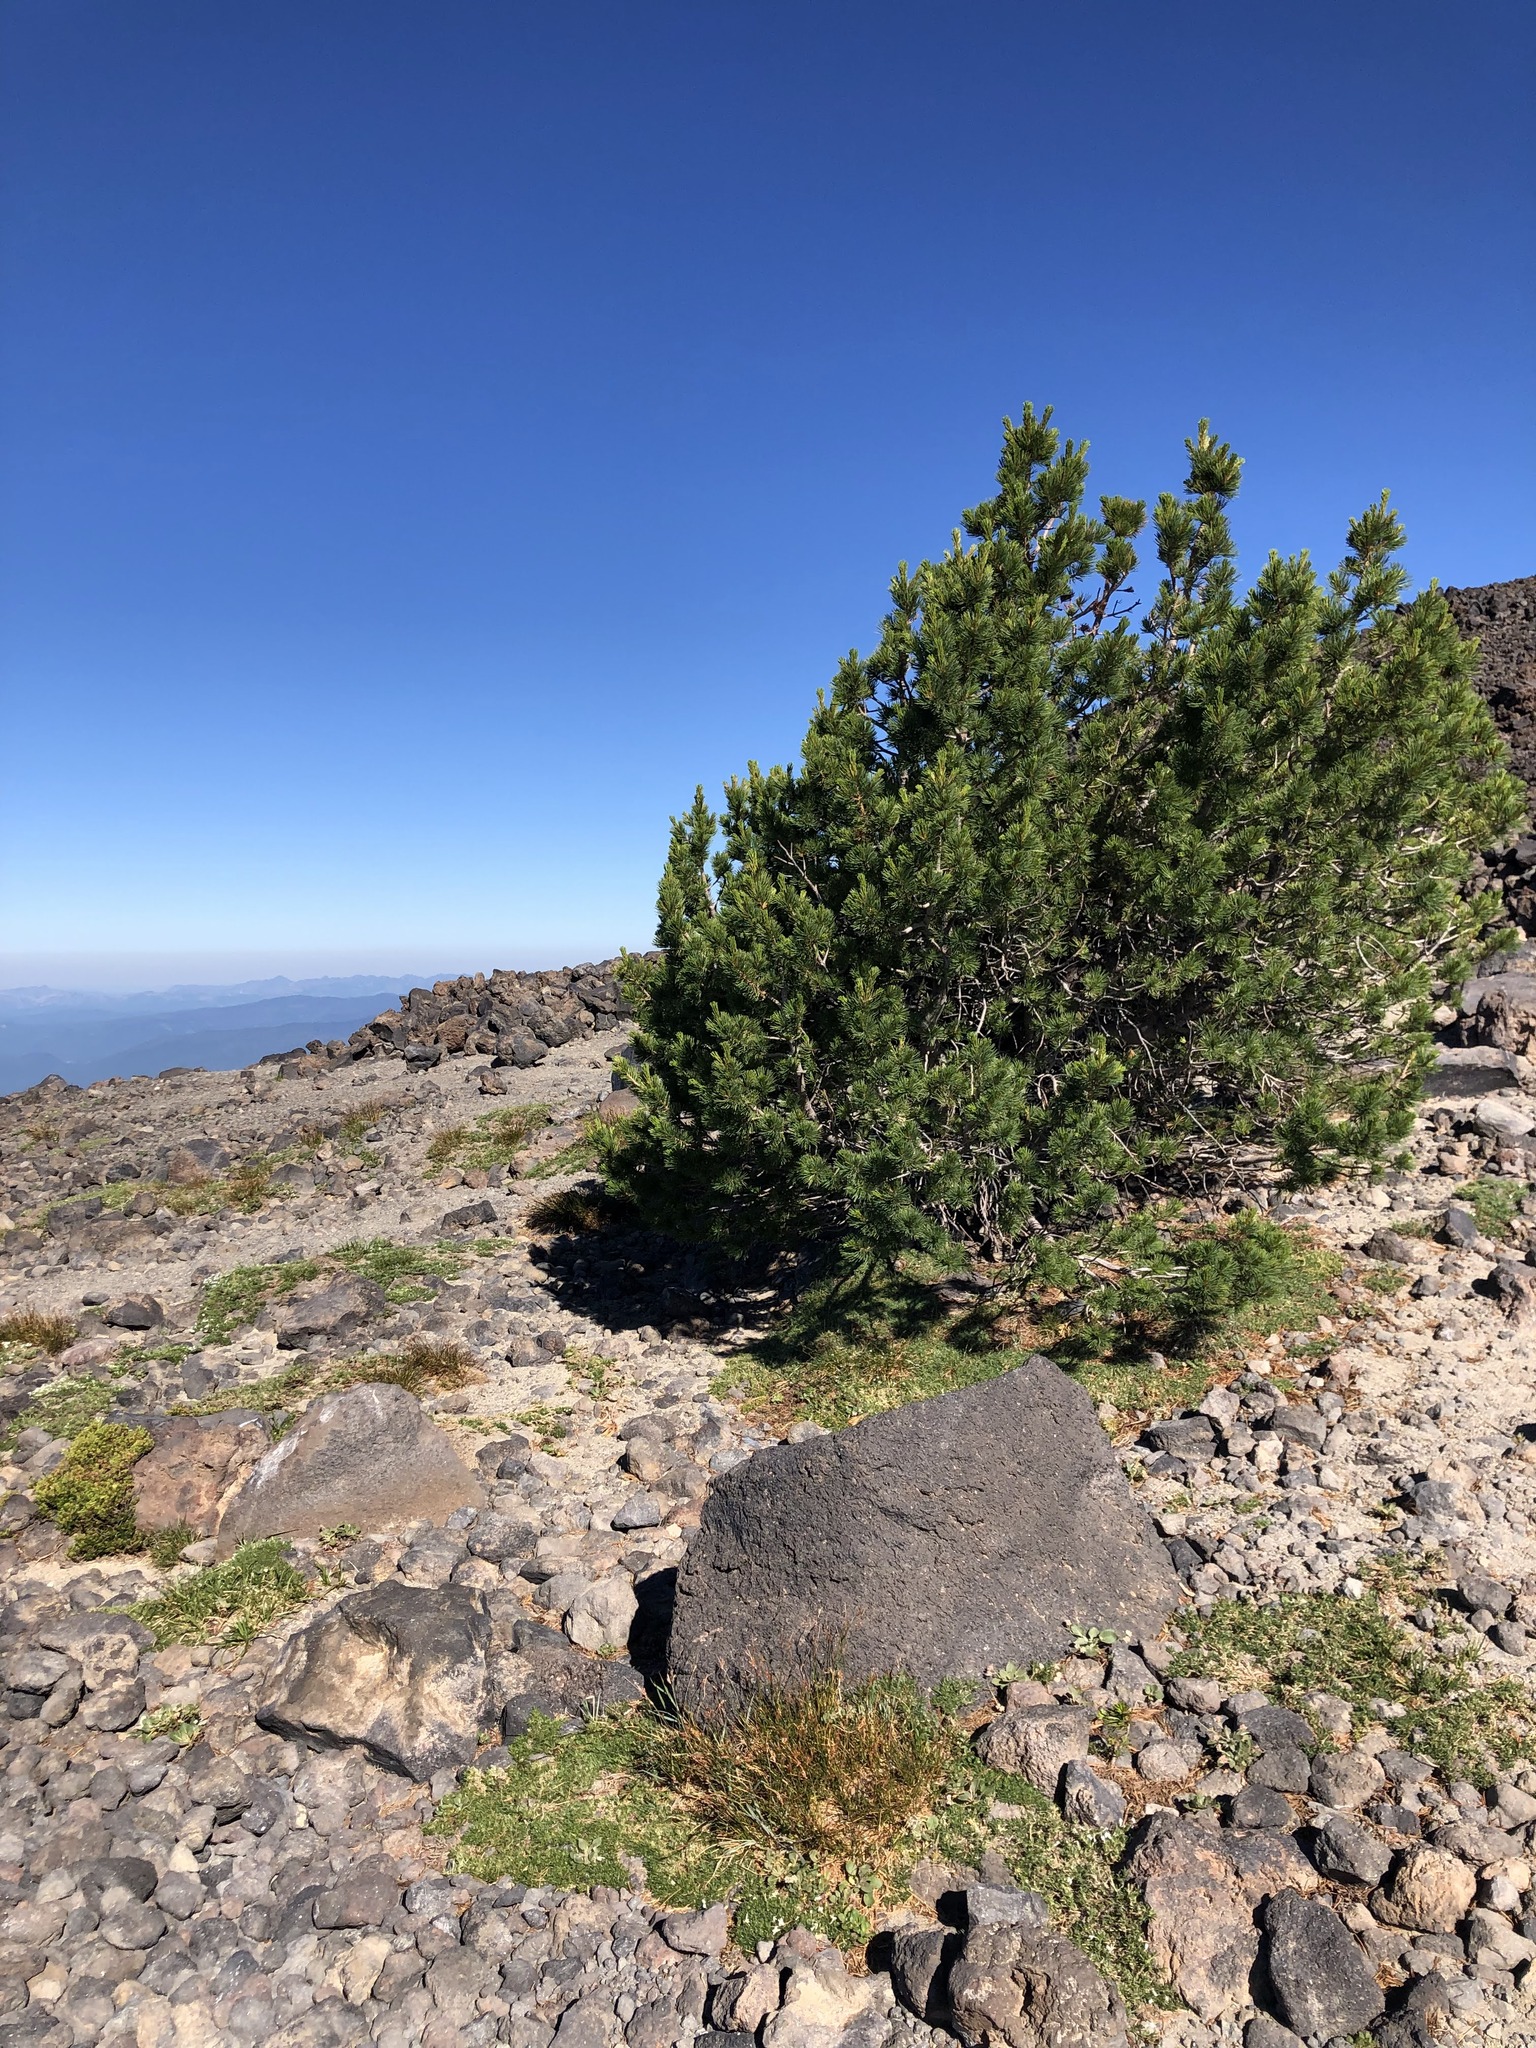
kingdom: Plantae
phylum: Tracheophyta
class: Pinopsida
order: Pinales
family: Pinaceae
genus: Pinus
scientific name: Pinus albicaulis
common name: Whitebark pine
